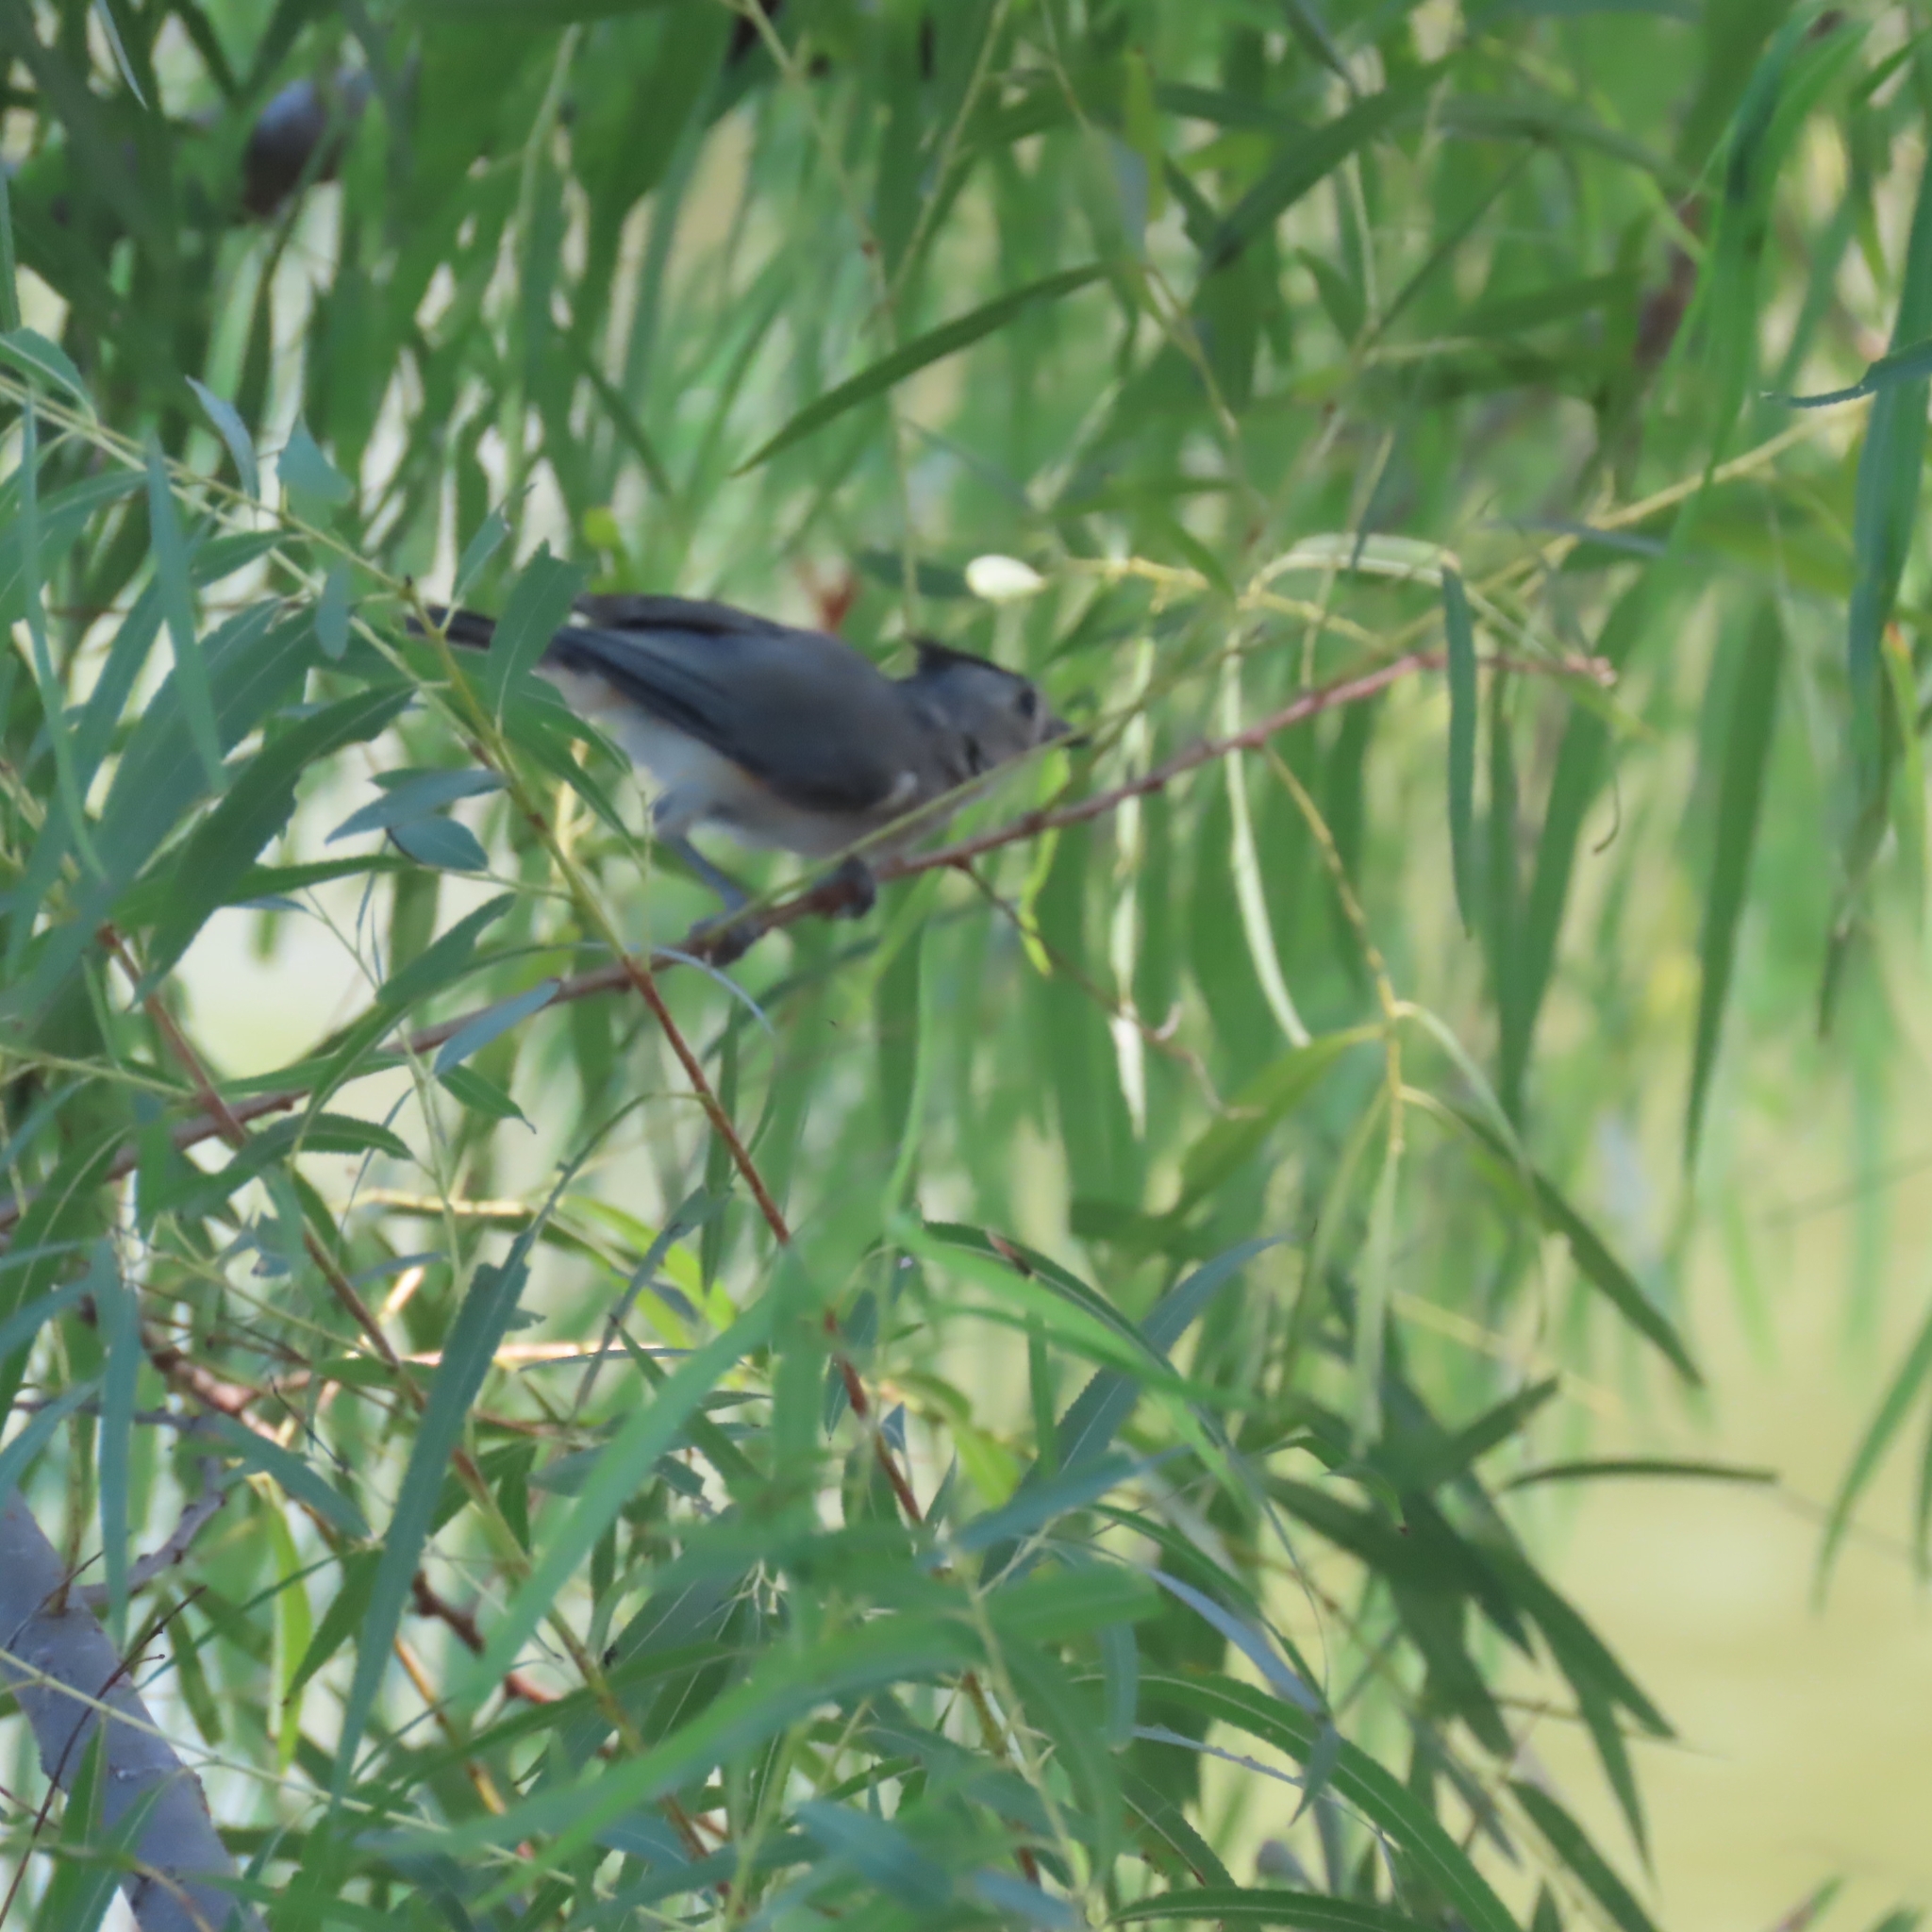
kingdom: Animalia
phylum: Chordata
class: Aves
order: Passeriformes
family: Paridae
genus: Baeolophus
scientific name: Baeolophus atricristatus
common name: Black-crested titmouse
